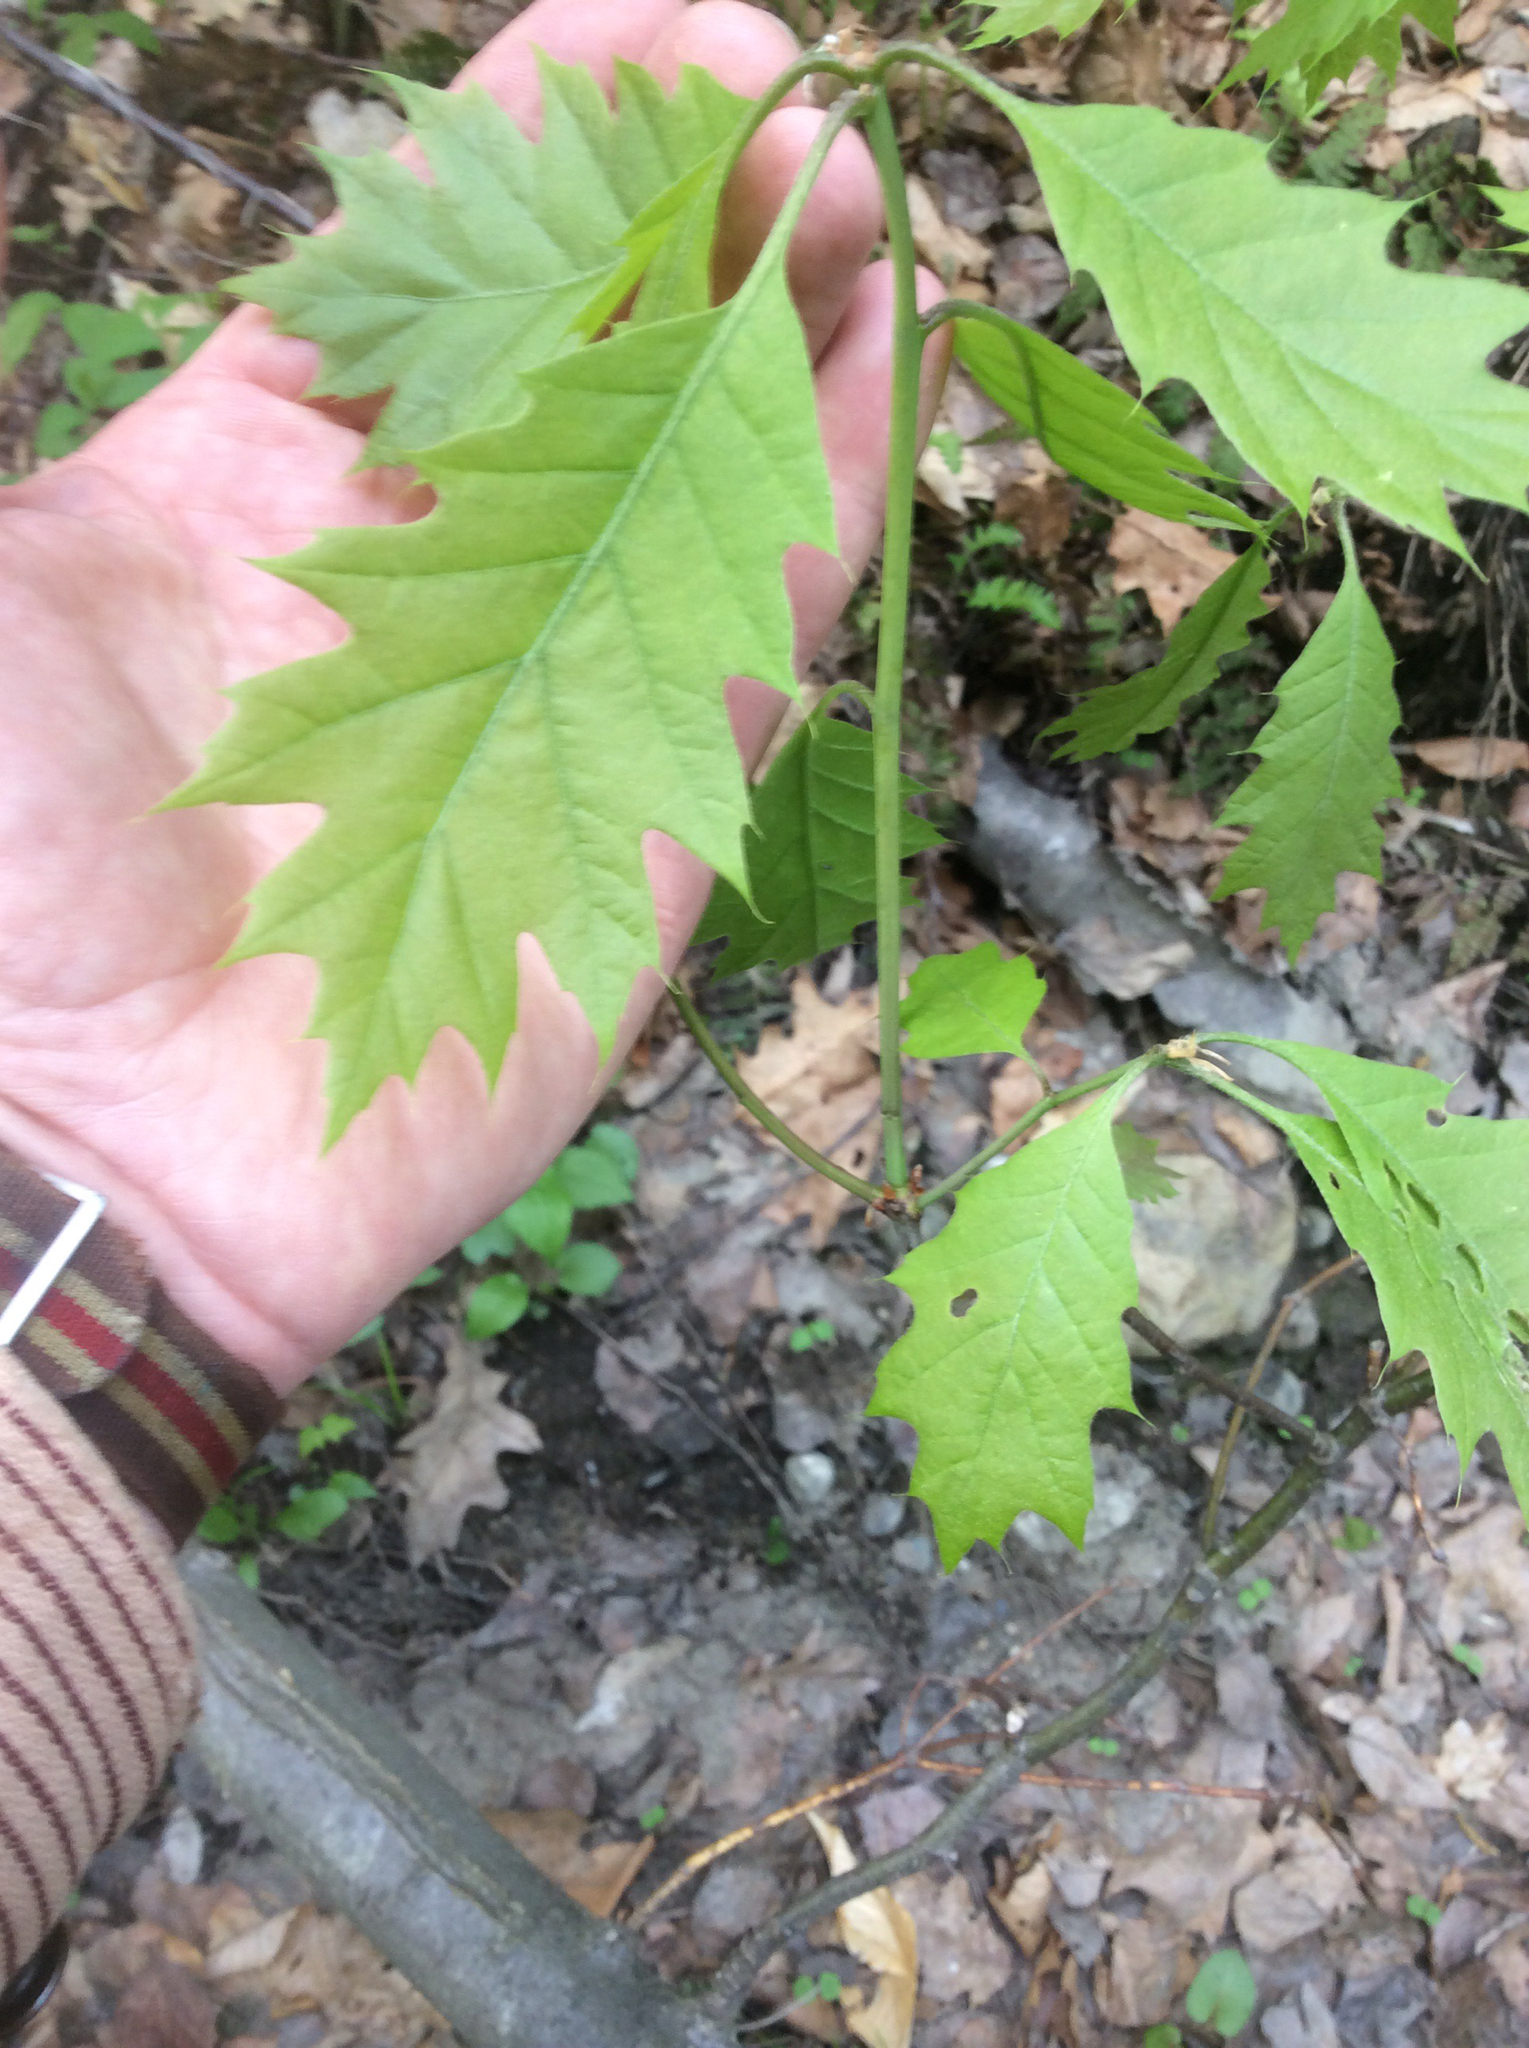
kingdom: Plantae
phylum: Tracheophyta
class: Magnoliopsida
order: Fagales
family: Fagaceae
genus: Quercus
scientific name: Quercus rubra
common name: Red oak
